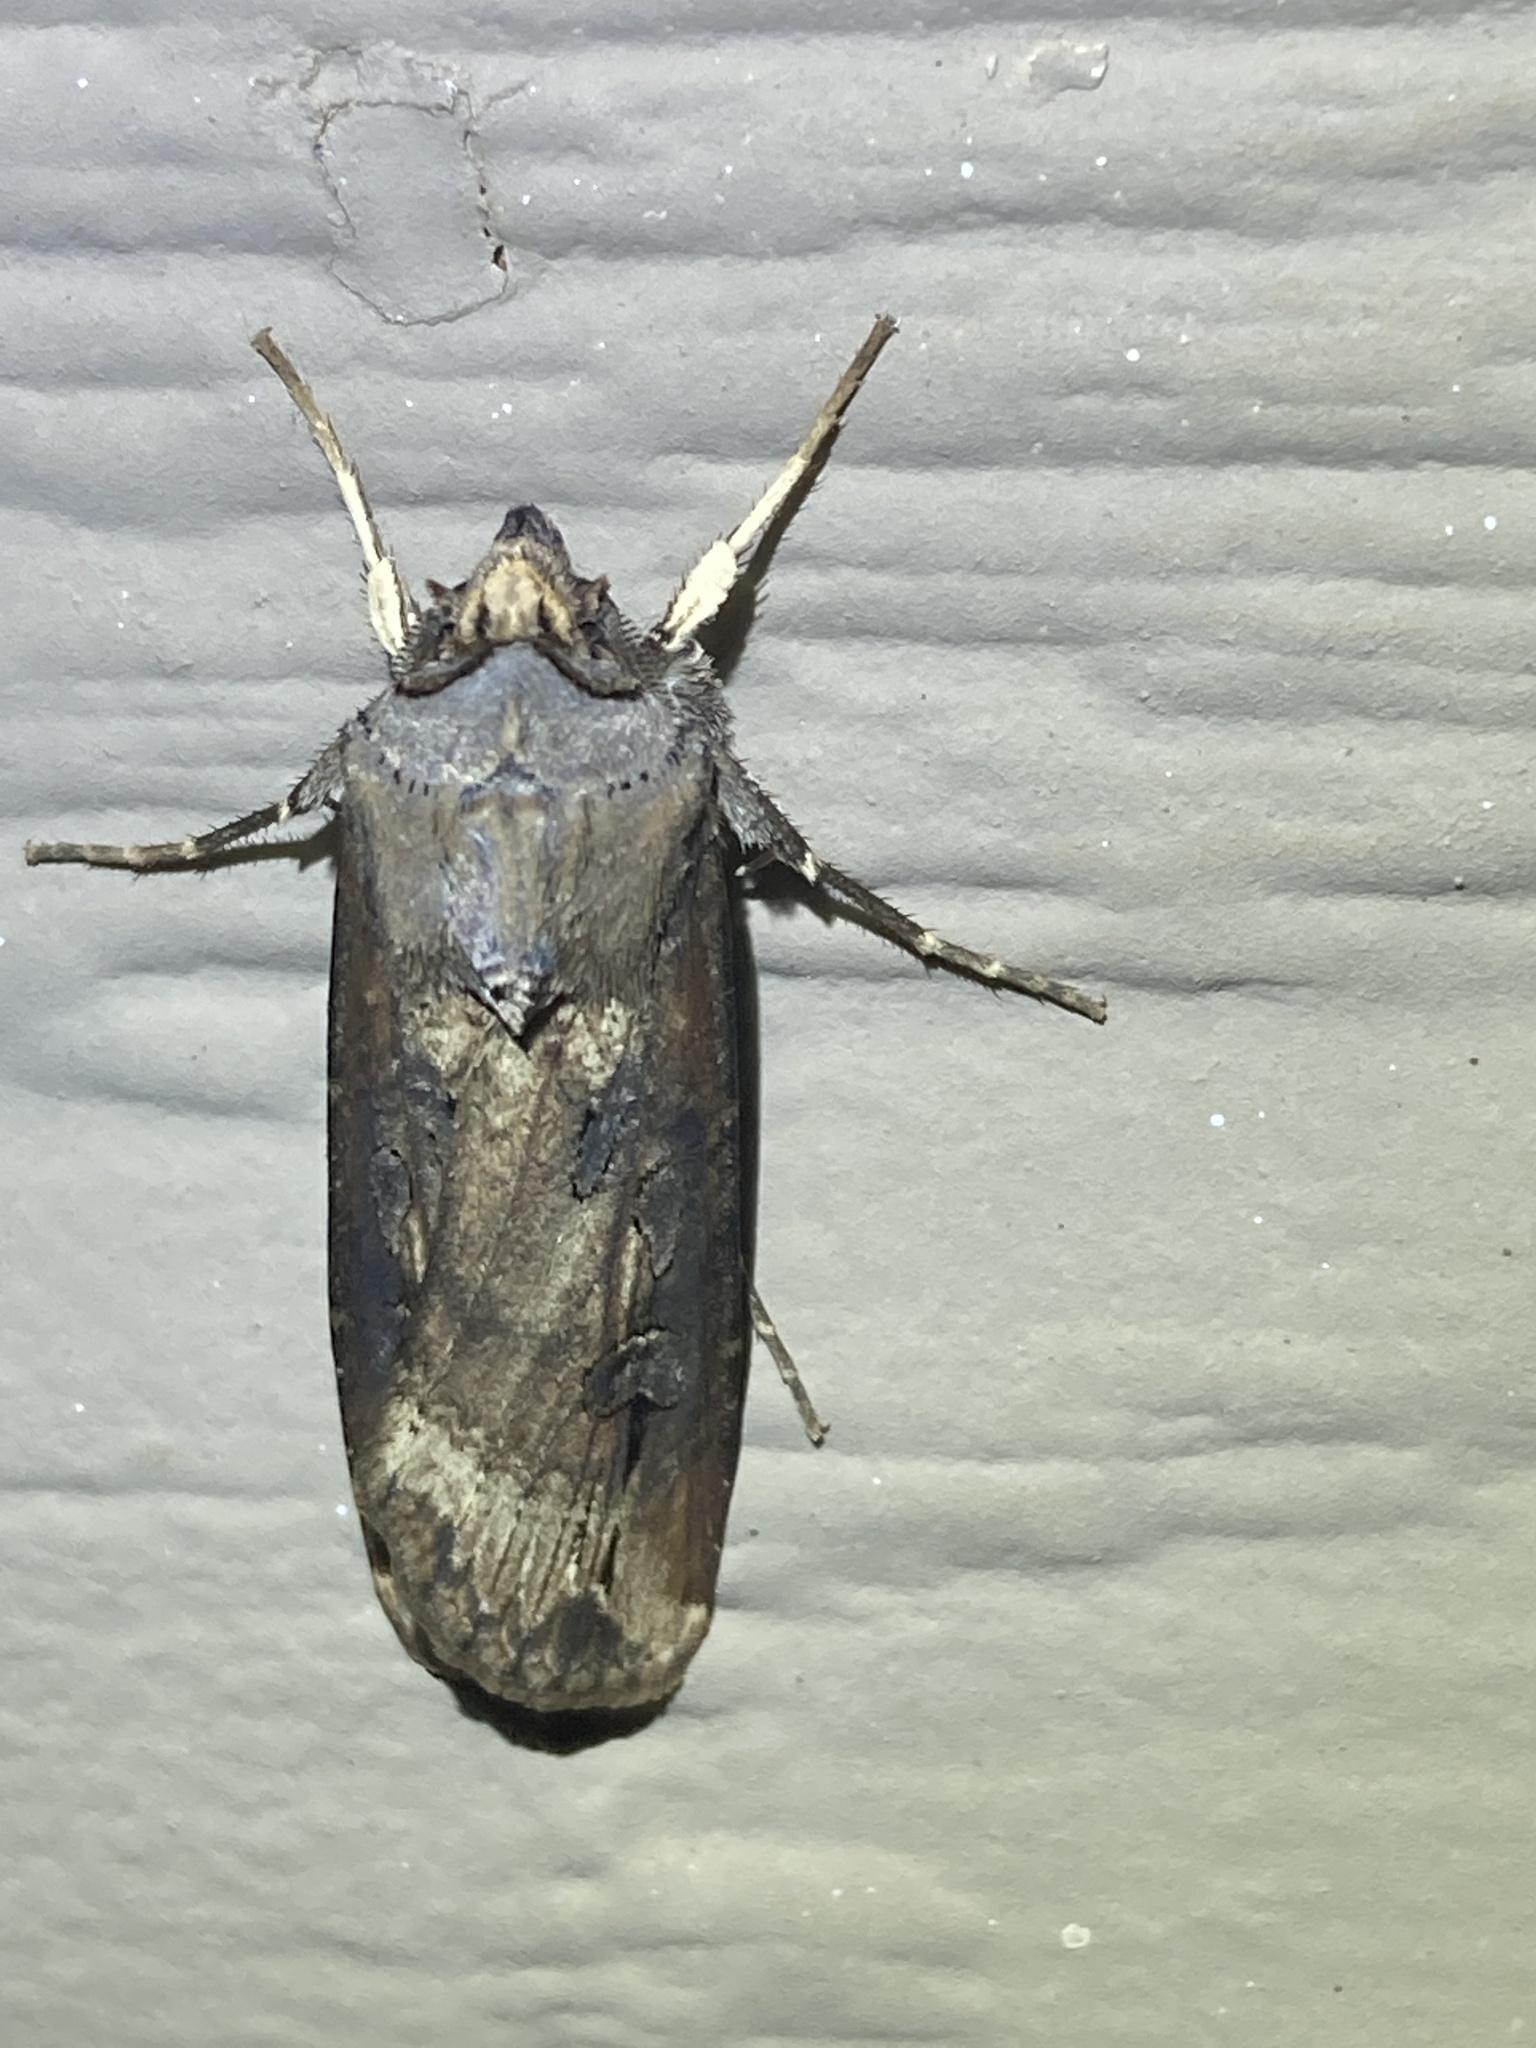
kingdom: Animalia
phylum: Arthropoda
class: Insecta
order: Lepidoptera
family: Noctuidae
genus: Agrotis
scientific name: Agrotis ipsilon
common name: Dark sword-grass
